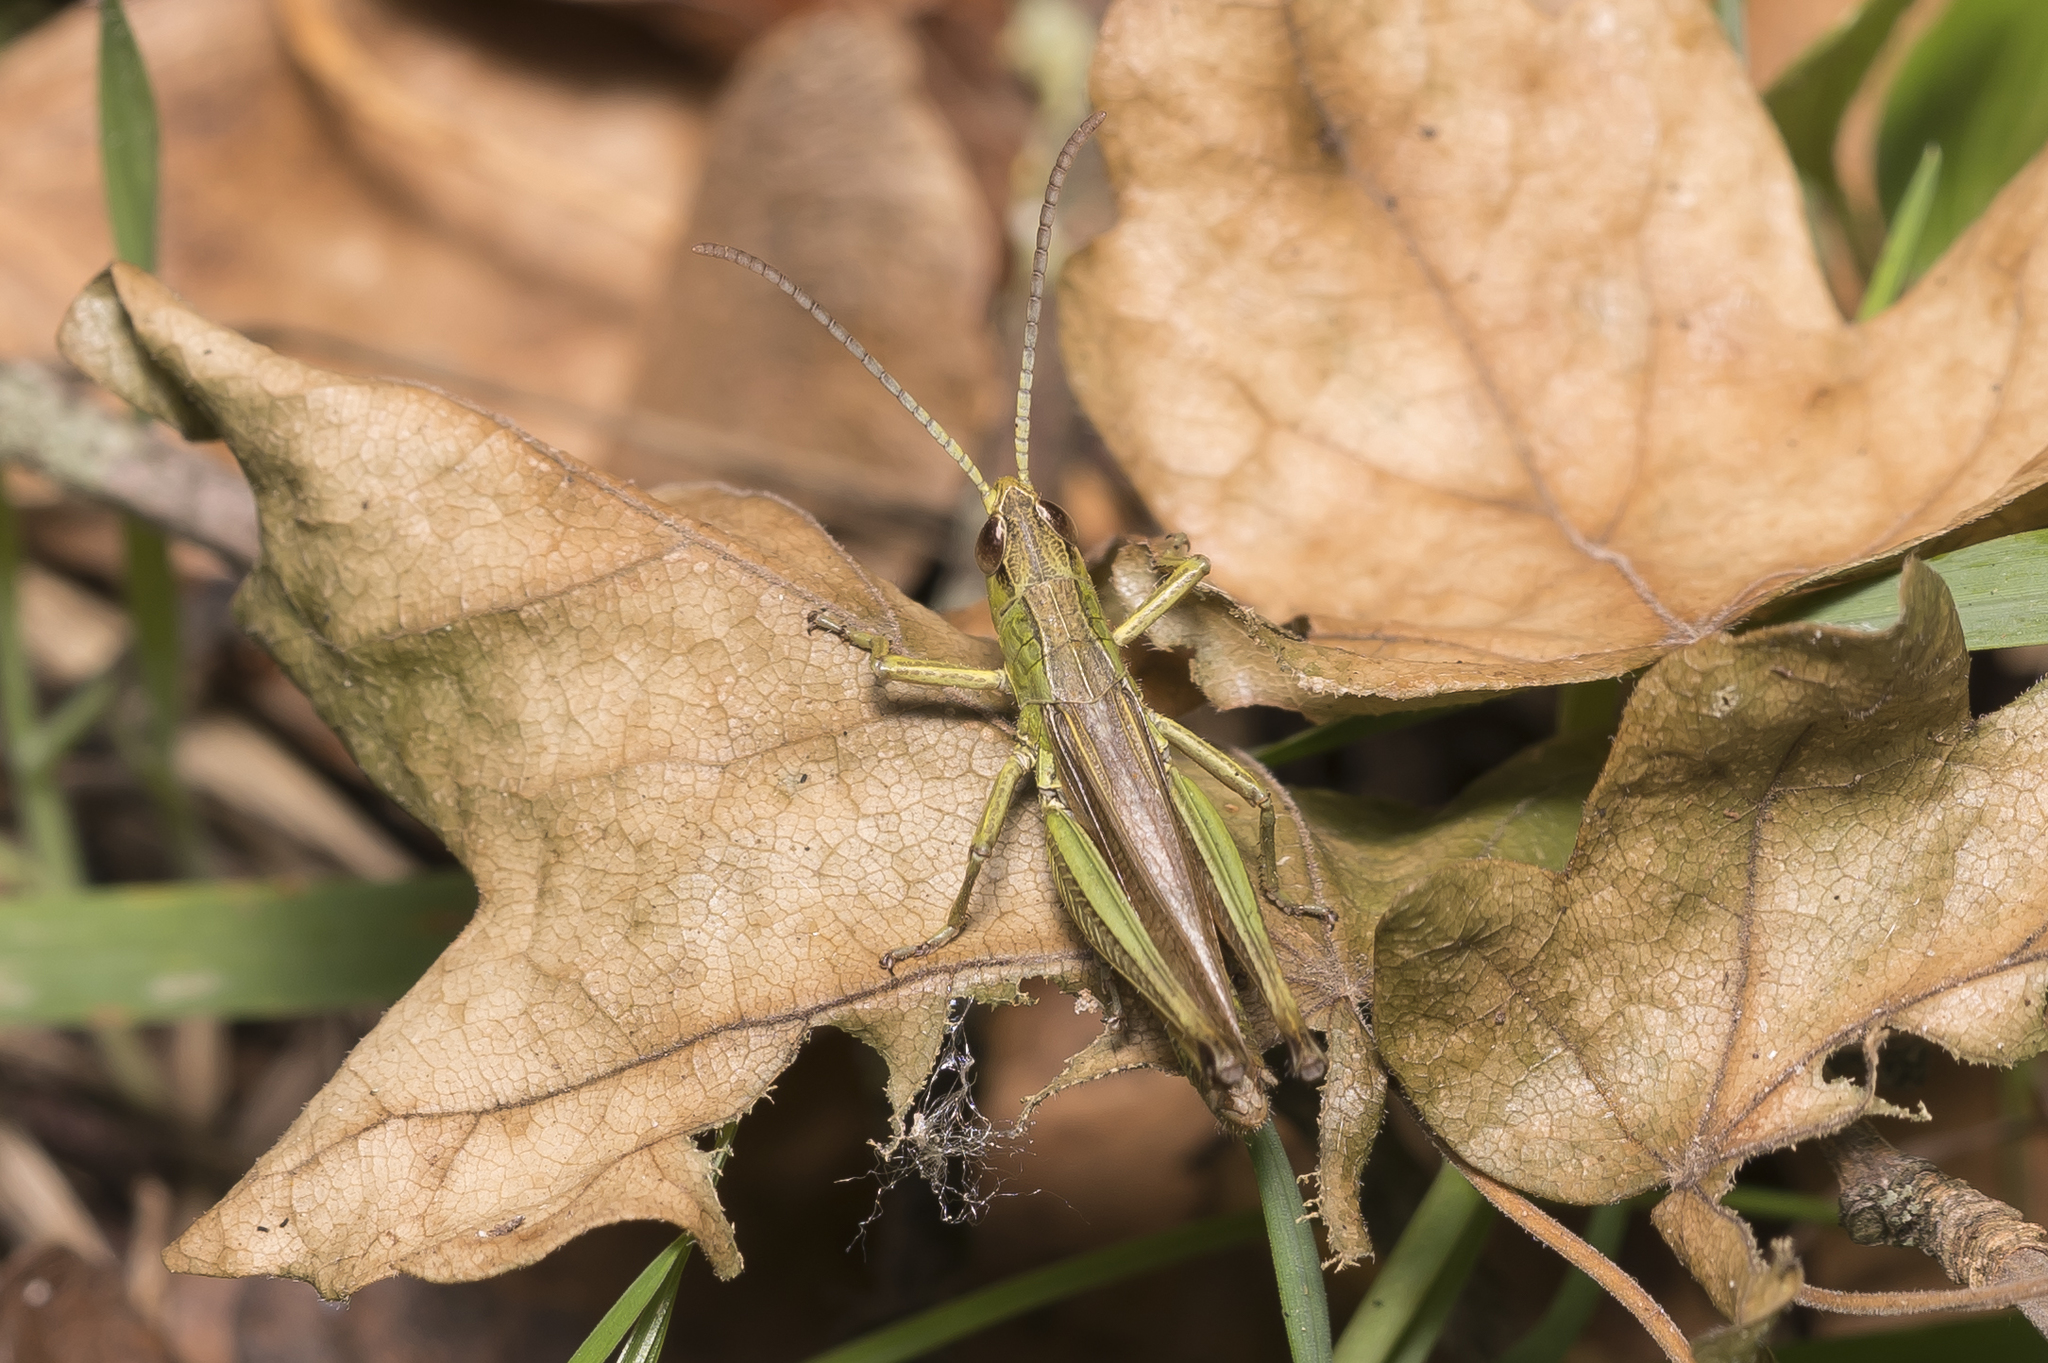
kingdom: Animalia
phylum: Arthropoda
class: Insecta
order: Orthoptera
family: Acrididae
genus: Pseudochorthippus
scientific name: Pseudochorthippus parallelus
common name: Meadow grasshopper
